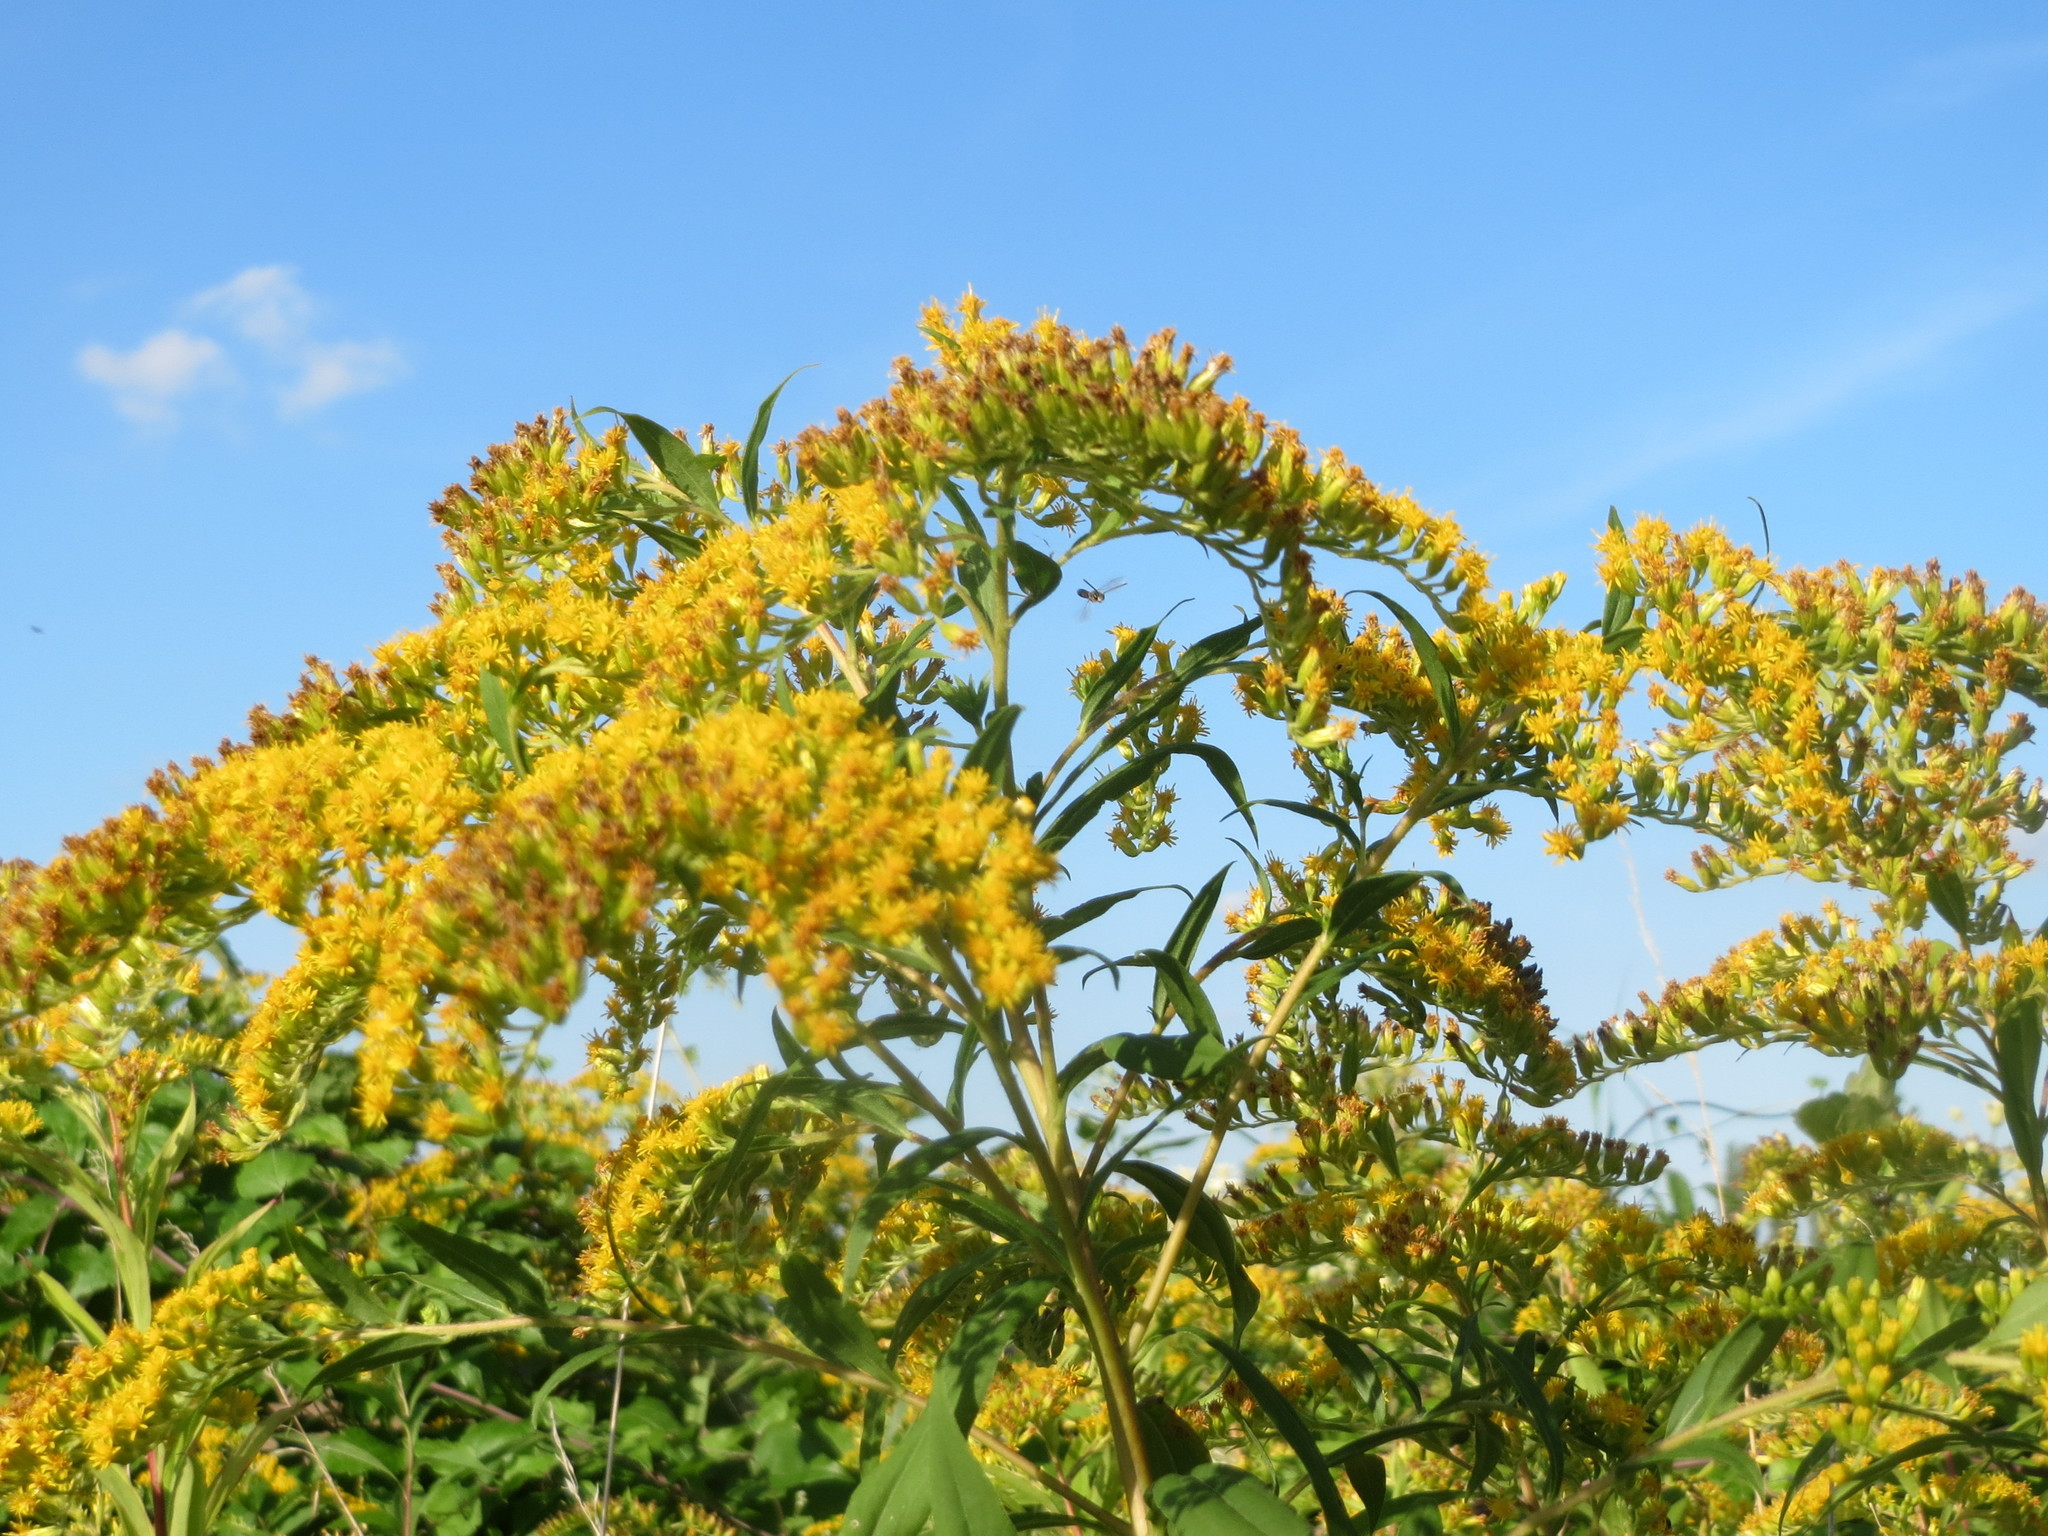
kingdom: Plantae
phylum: Tracheophyta
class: Magnoliopsida
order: Asterales
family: Asteraceae
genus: Solidago
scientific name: Solidago canadensis
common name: Canada goldenrod
